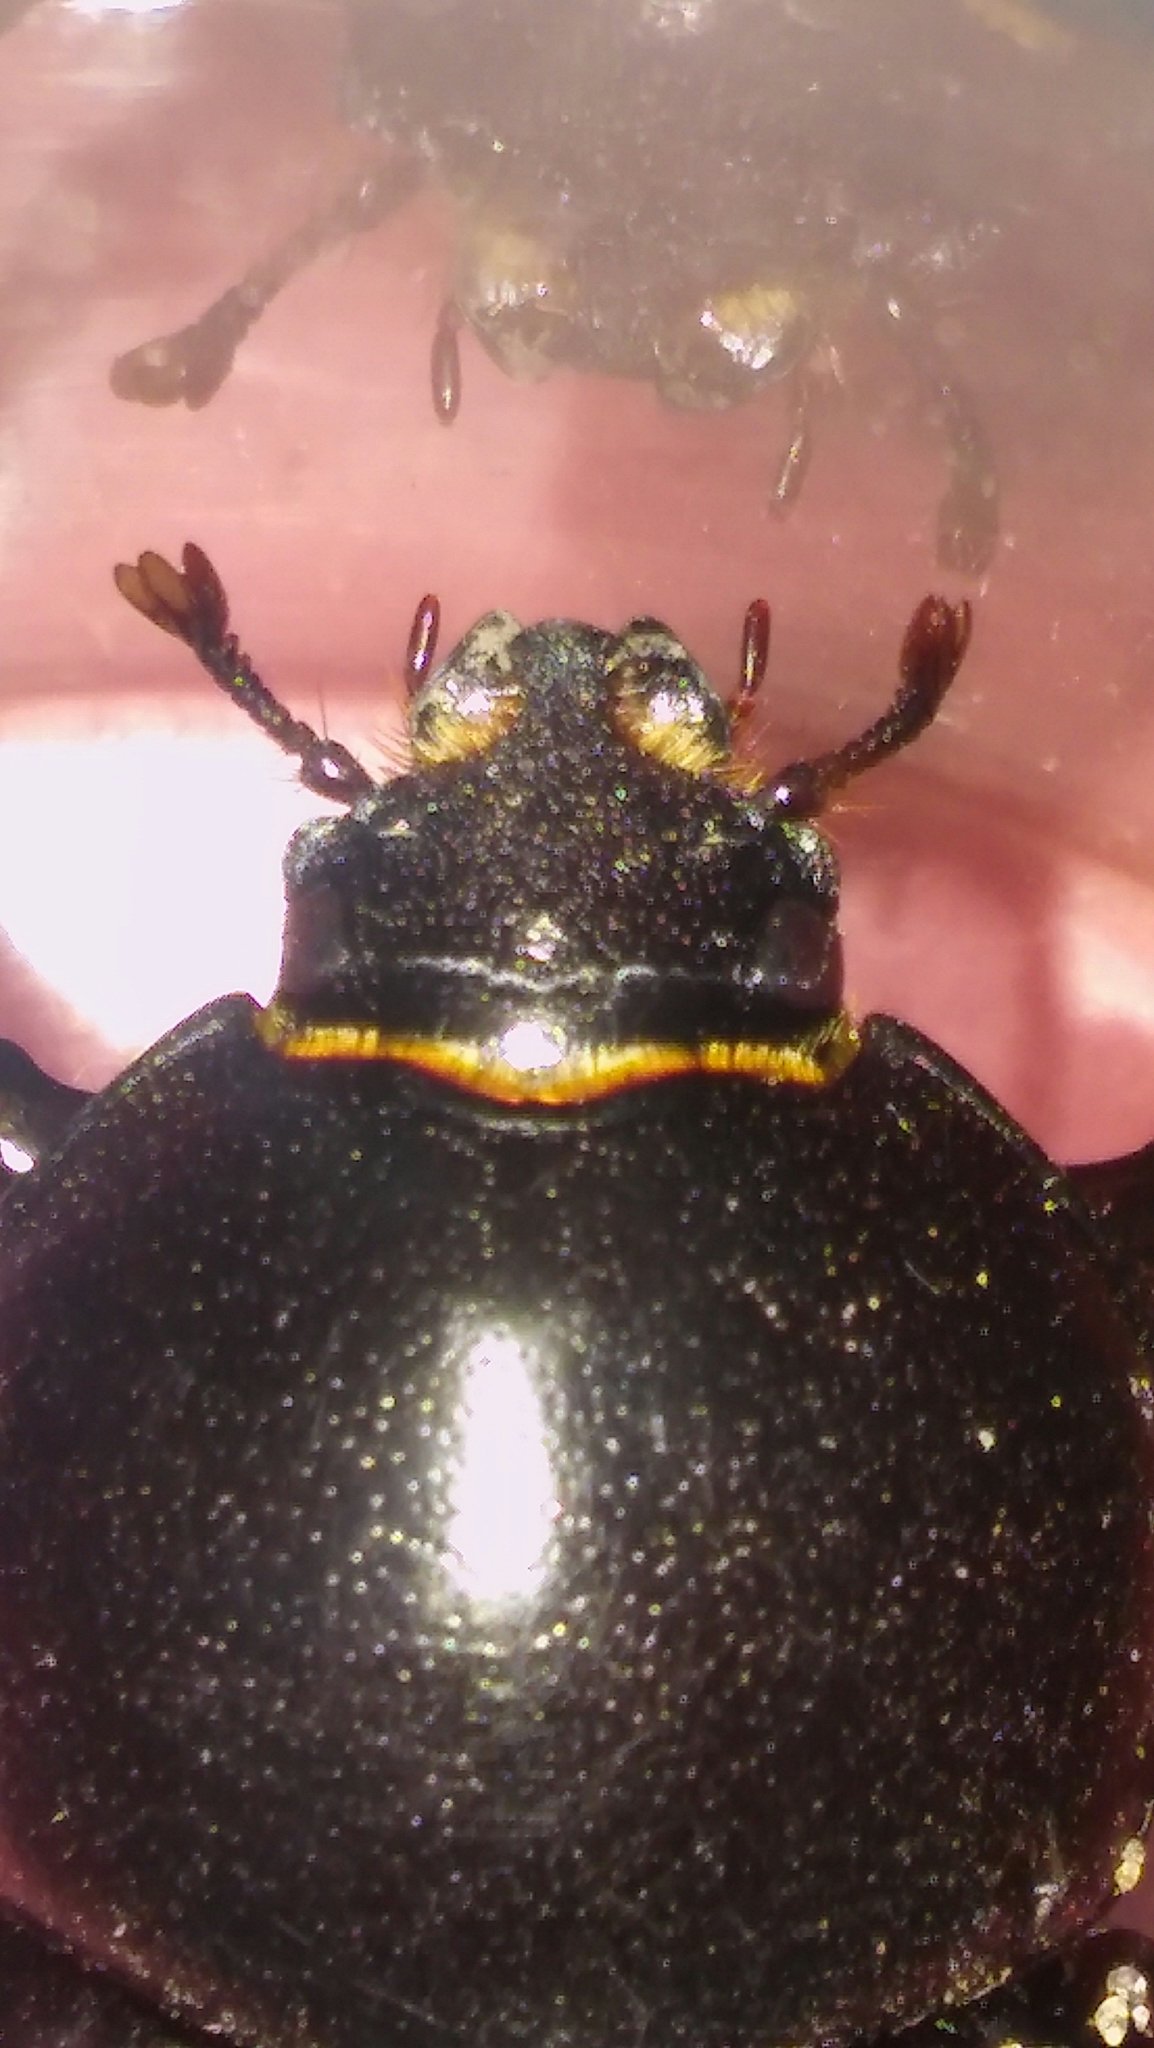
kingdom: Animalia
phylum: Arthropoda
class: Insecta
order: Coleoptera
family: Scarabaeidae
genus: Diloboderus
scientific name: Diloboderus abderus
